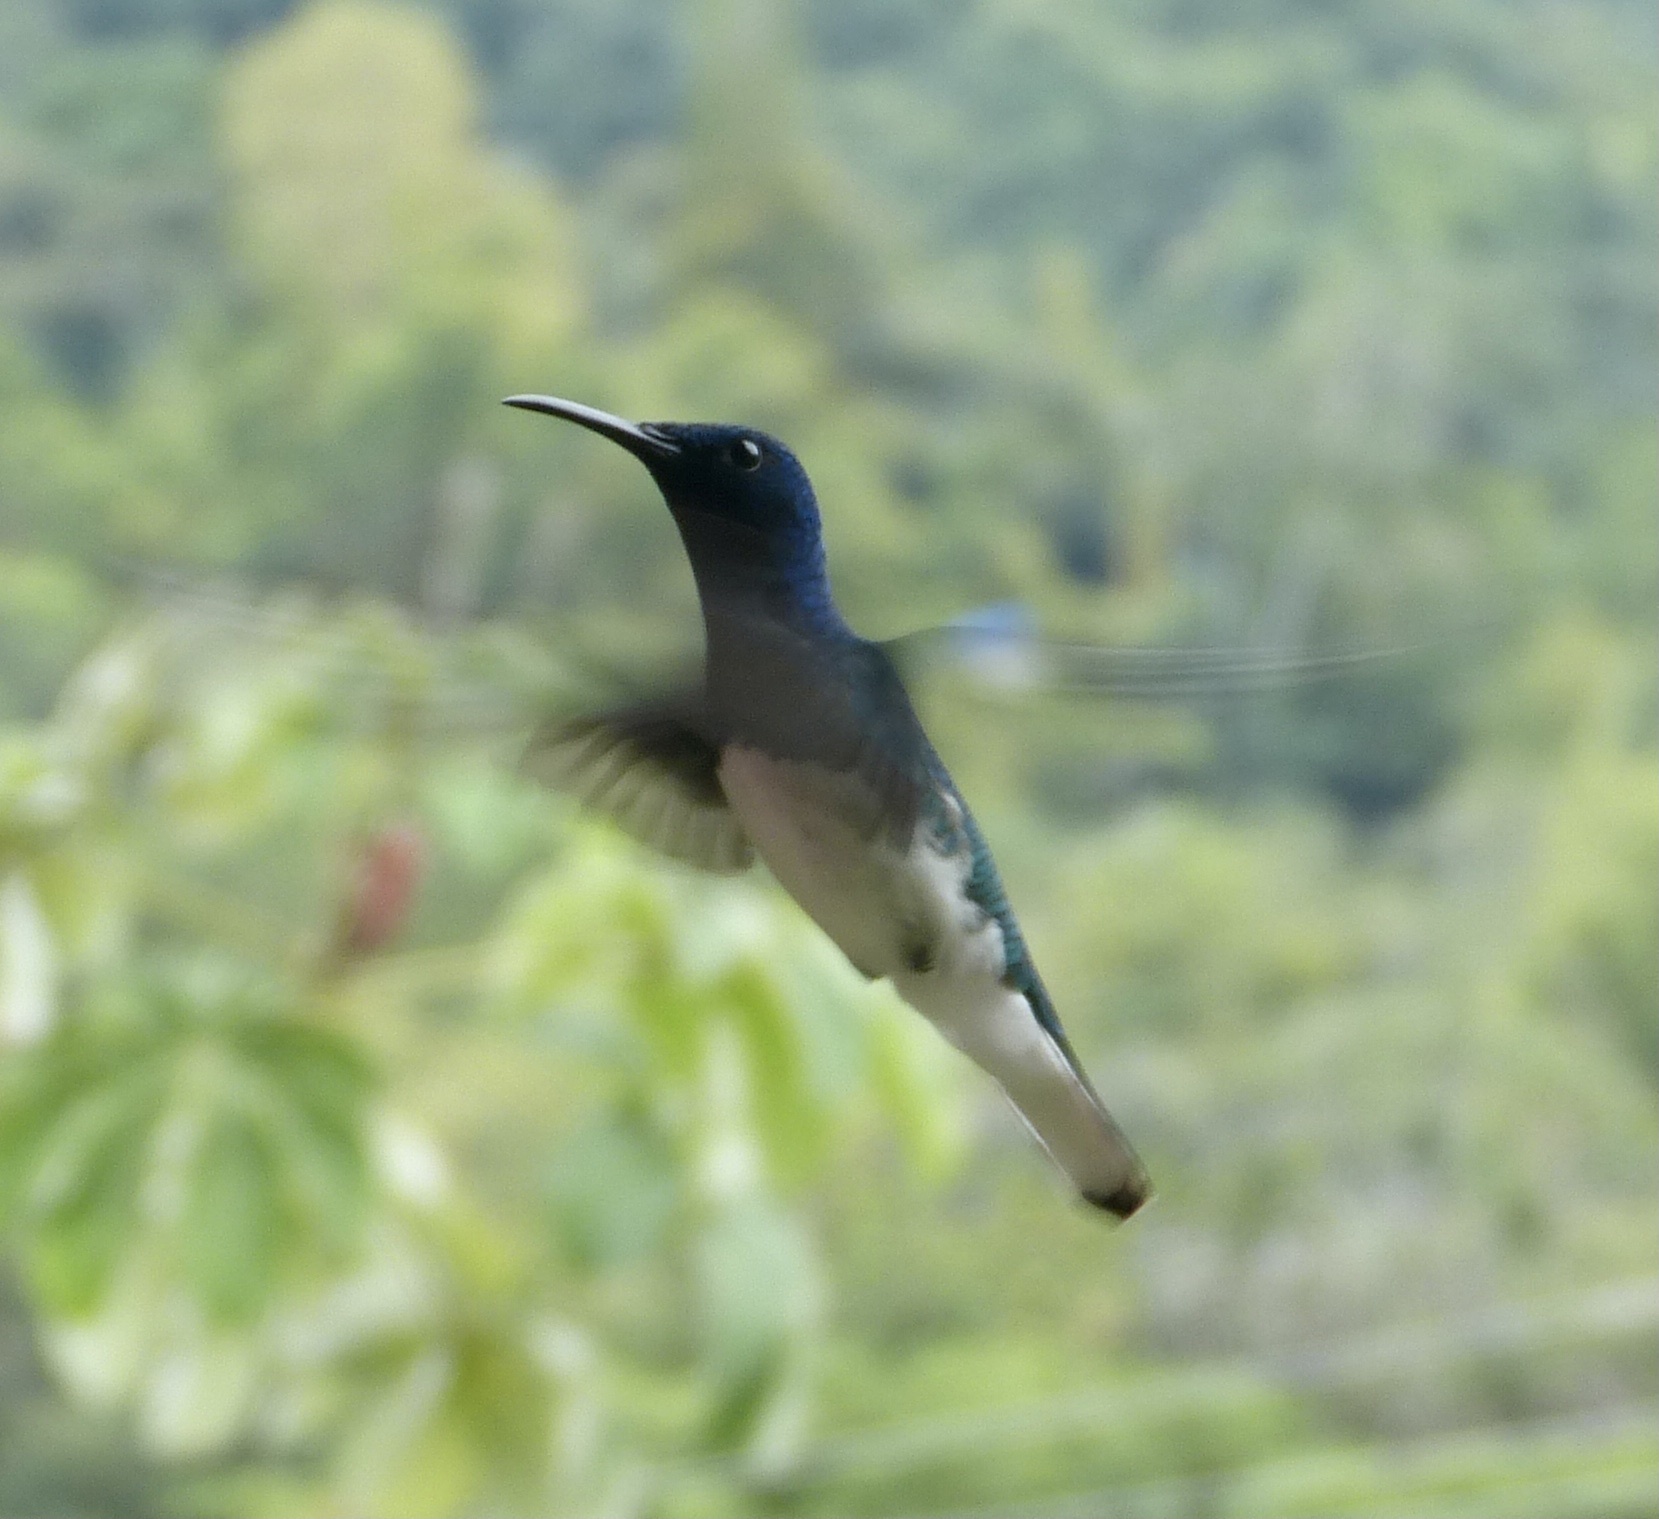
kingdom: Animalia
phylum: Chordata
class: Aves
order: Apodiformes
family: Trochilidae
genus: Florisuga
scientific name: Florisuga mellivora
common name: White-necked jacobin
